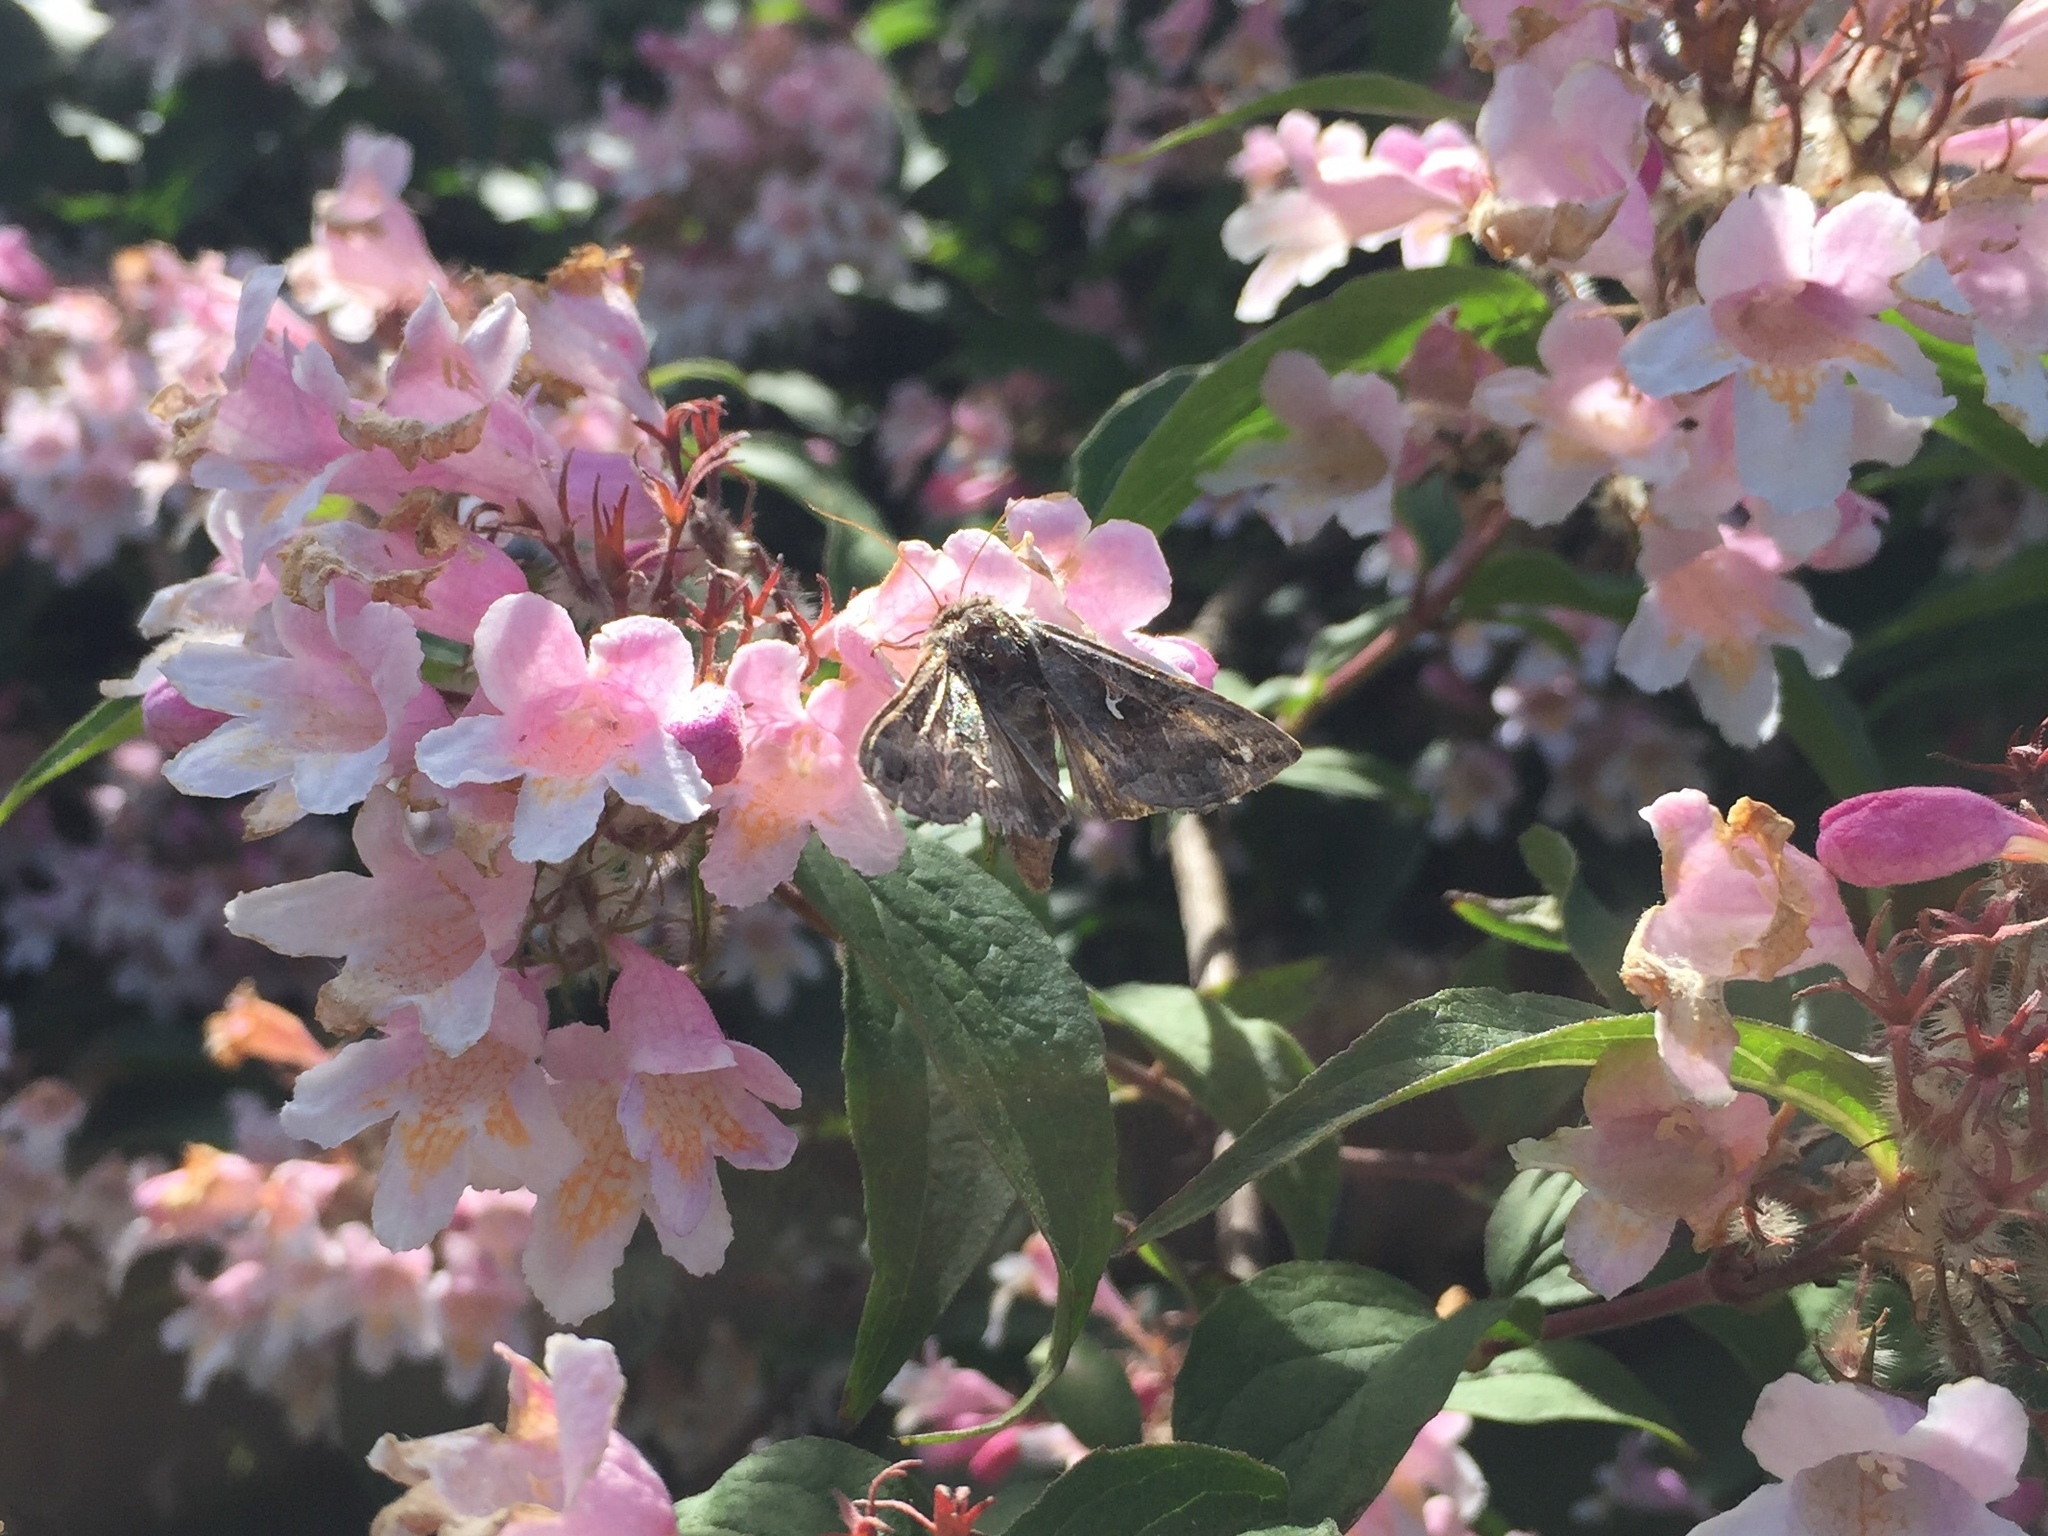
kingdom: Animalia
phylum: Arthropoda
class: Insecta
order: Lepidoptera
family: Noctuidae
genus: Autographa
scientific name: Autographa gamma
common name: Silver y
